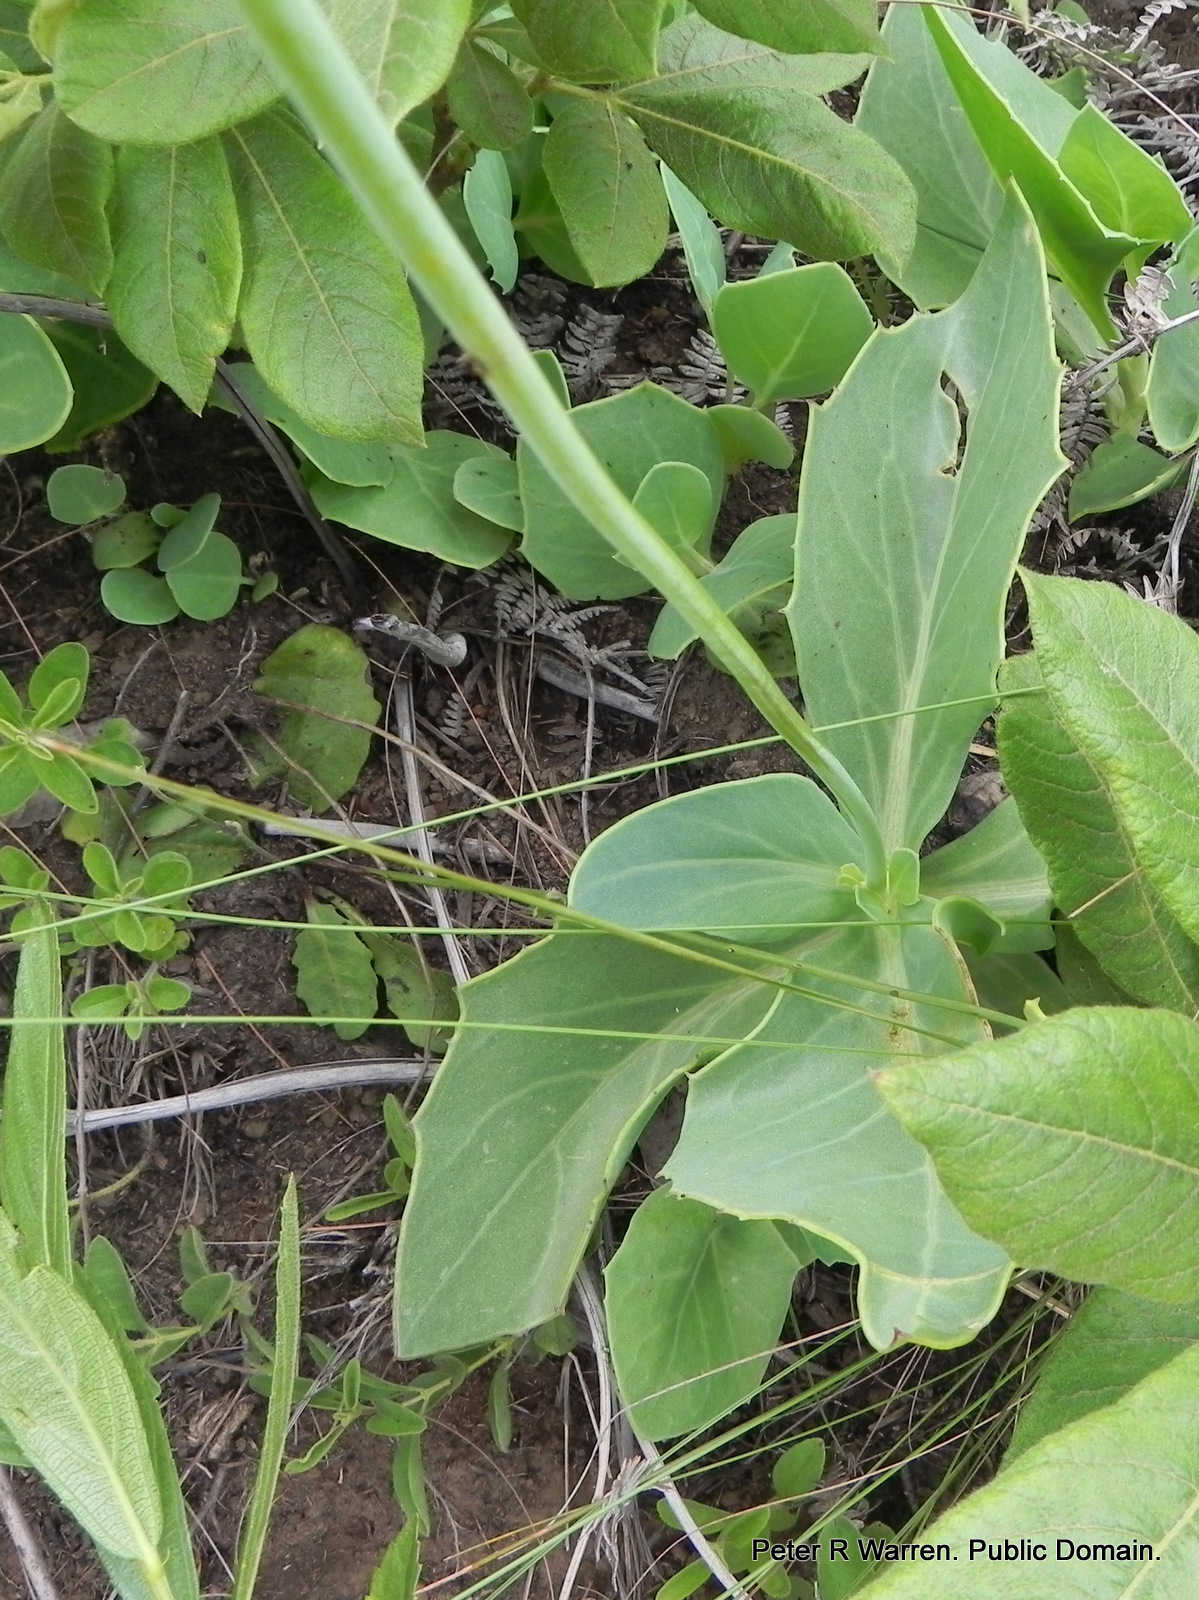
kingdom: Plantae
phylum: Tracheophyta
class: Magnoliopsida
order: Asterales
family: Asteraceae
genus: Senecio
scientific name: Senecio rhomboideus
